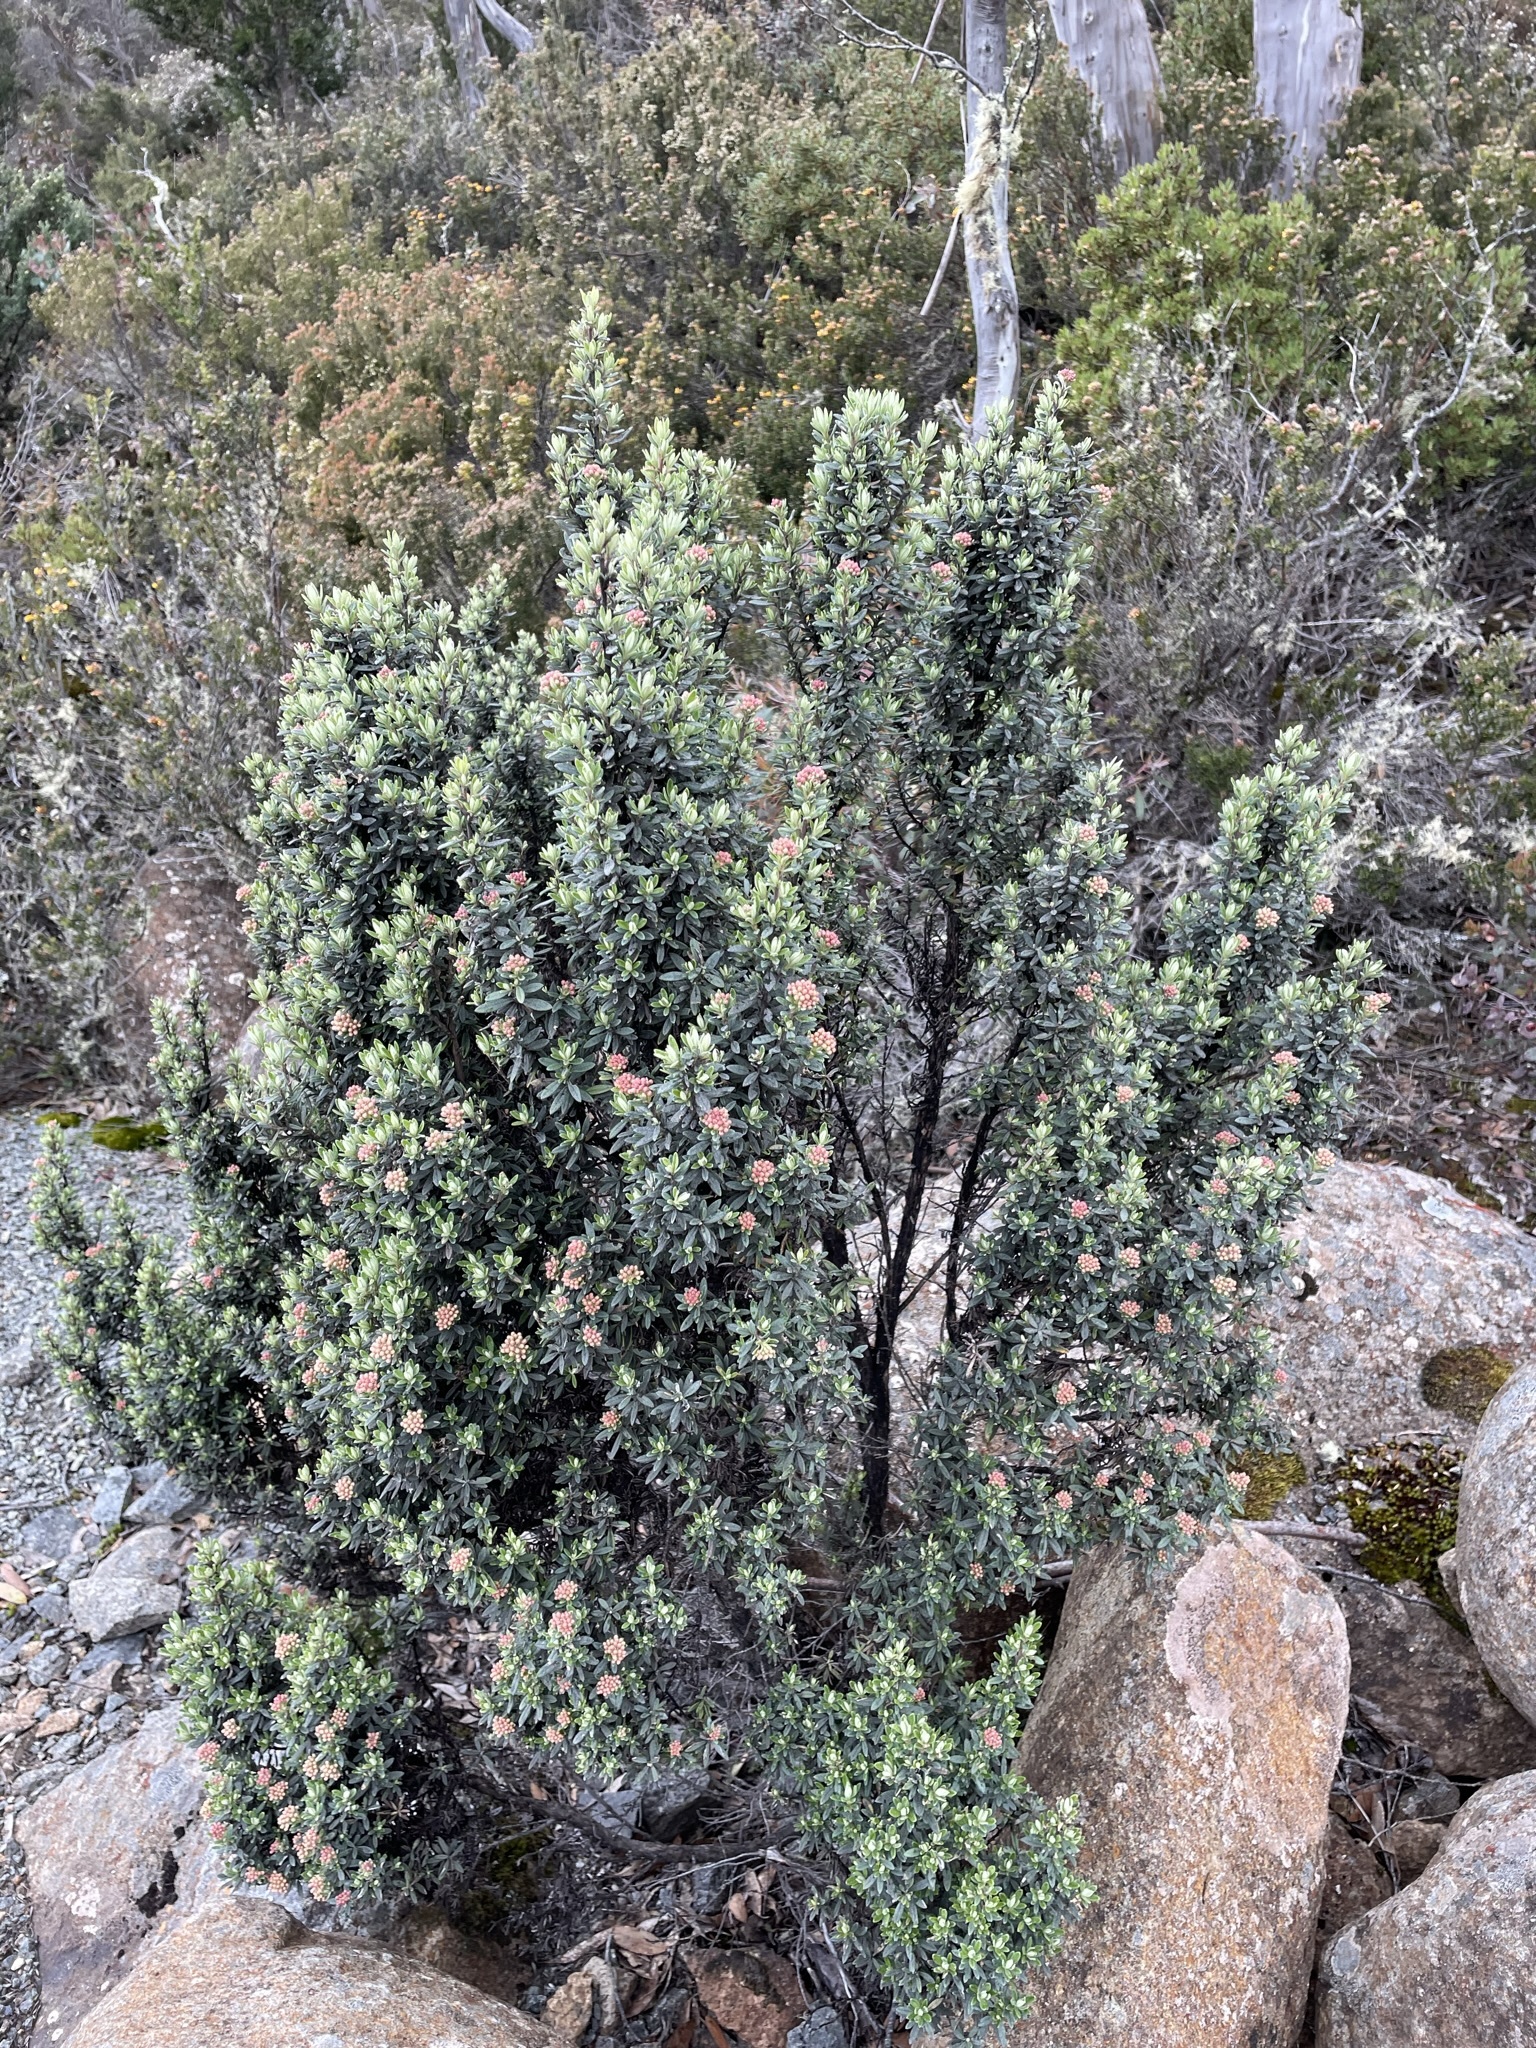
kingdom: Plantae
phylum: Tracheophyta
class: Magnoliopsida
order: Asterales
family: Asteraceae
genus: Ozothamnus
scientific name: Ozothamnus ledifolius
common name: Kerosene-weed
